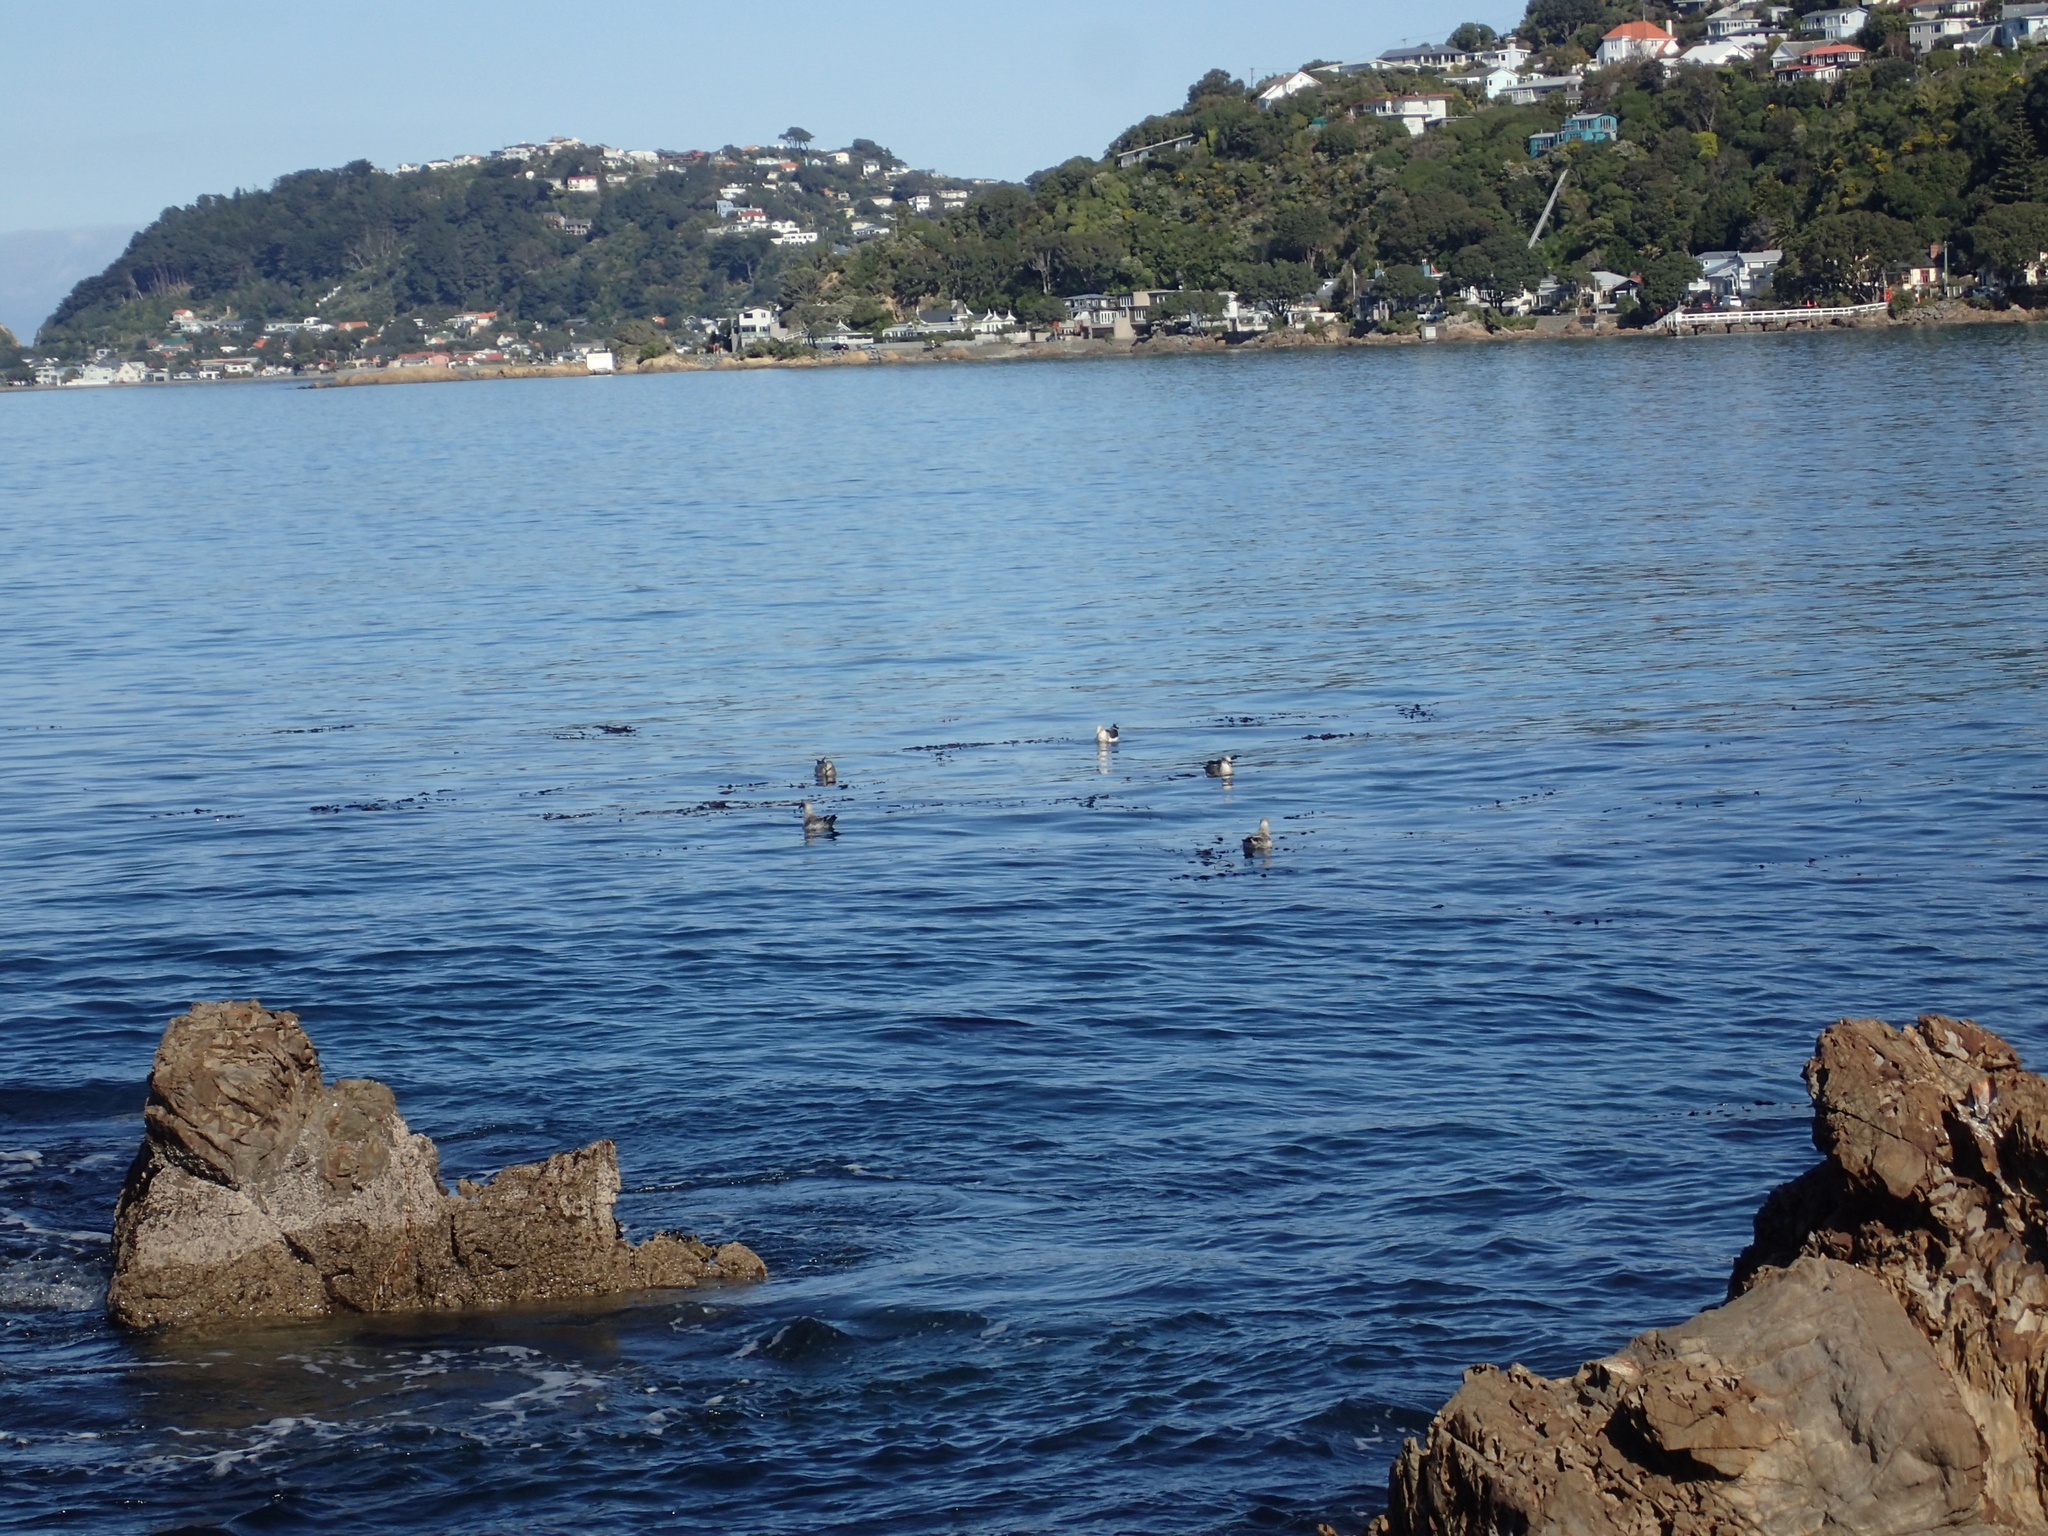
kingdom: Animalia
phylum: Chordata
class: Aves
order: Charadriiformes
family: Laridae
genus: Larus
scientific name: Larus dominicanus
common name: Kelp gull
